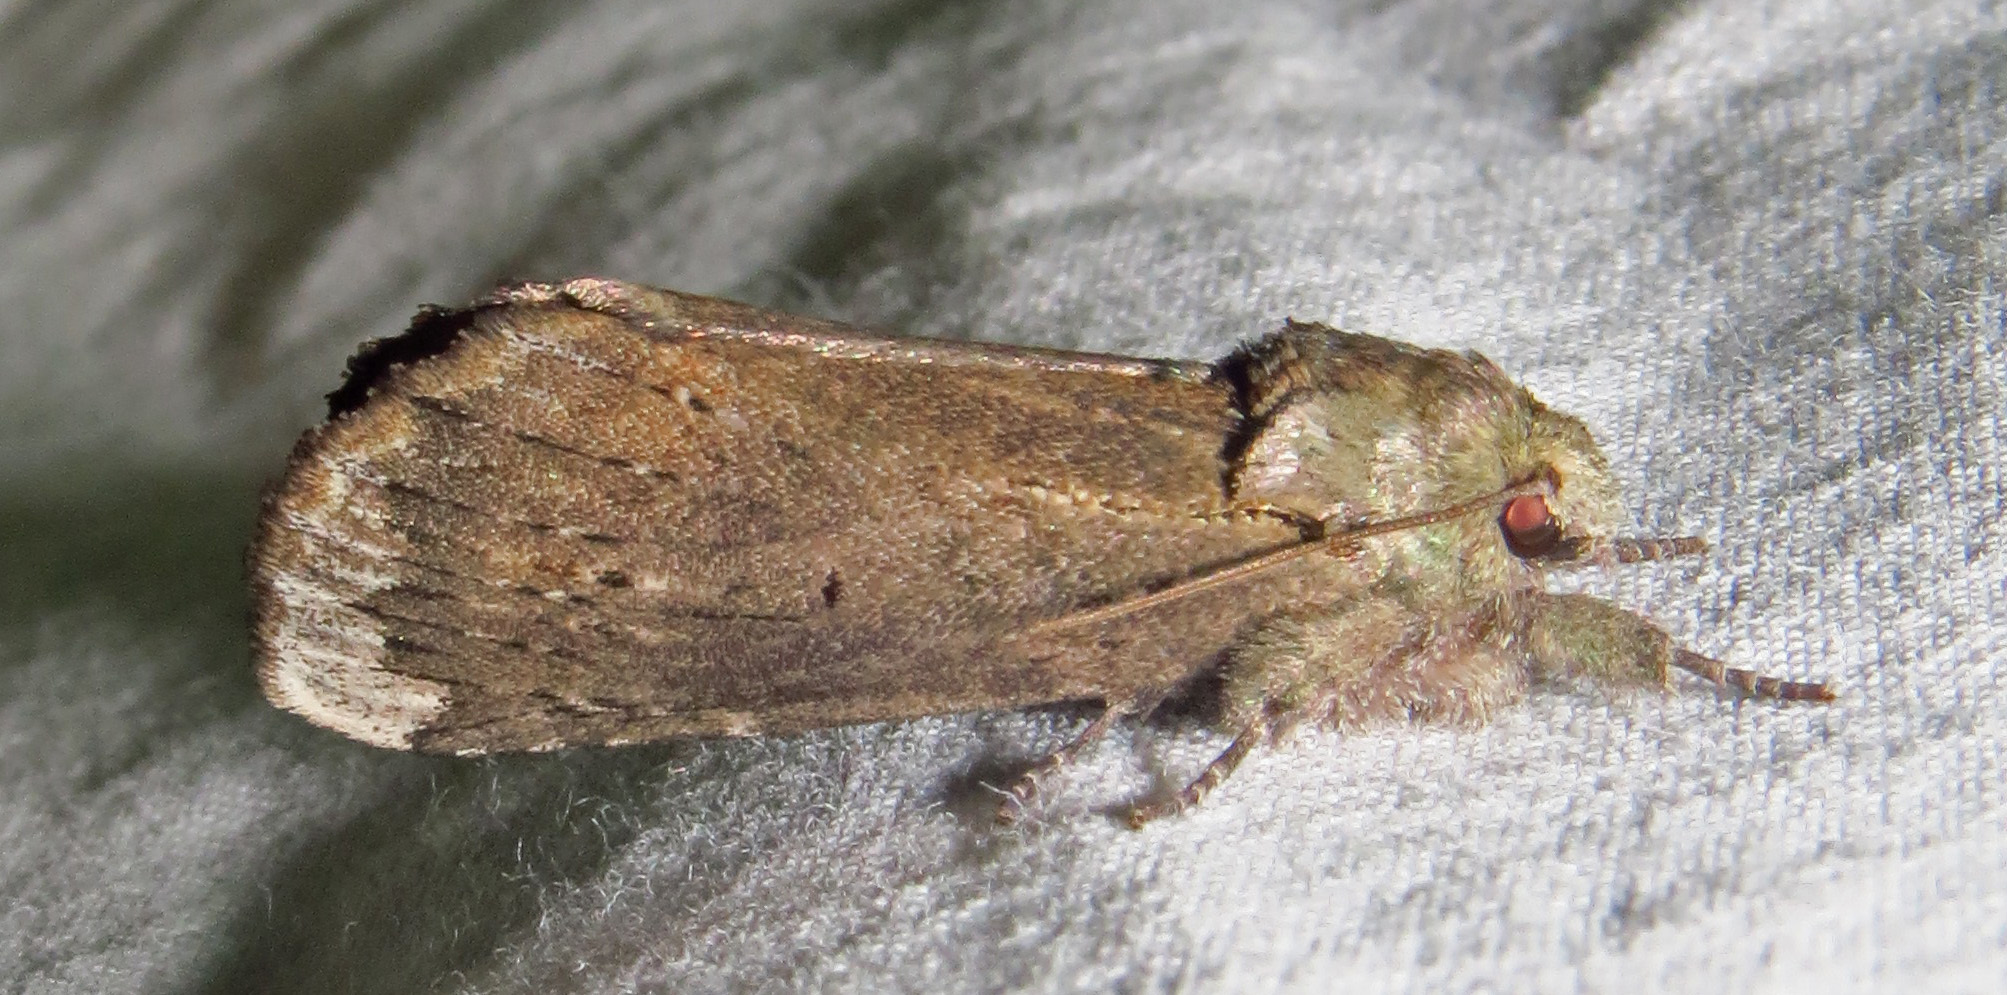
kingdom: Animalia
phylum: Arthropoda
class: Insecta
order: Lepidoptera
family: Notodontidae
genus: Schizura
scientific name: Schizura
